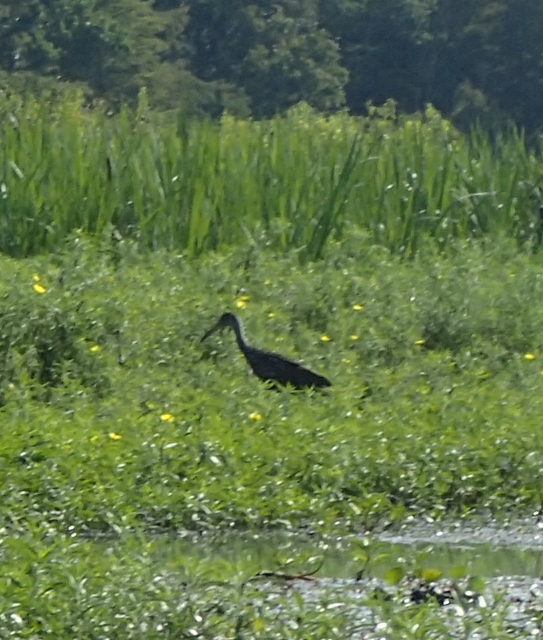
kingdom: Animalia
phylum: Chordata
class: Aves
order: Gruiformes
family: Aramidae
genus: Aramus
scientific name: Aramus guarauna
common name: Limpkin
